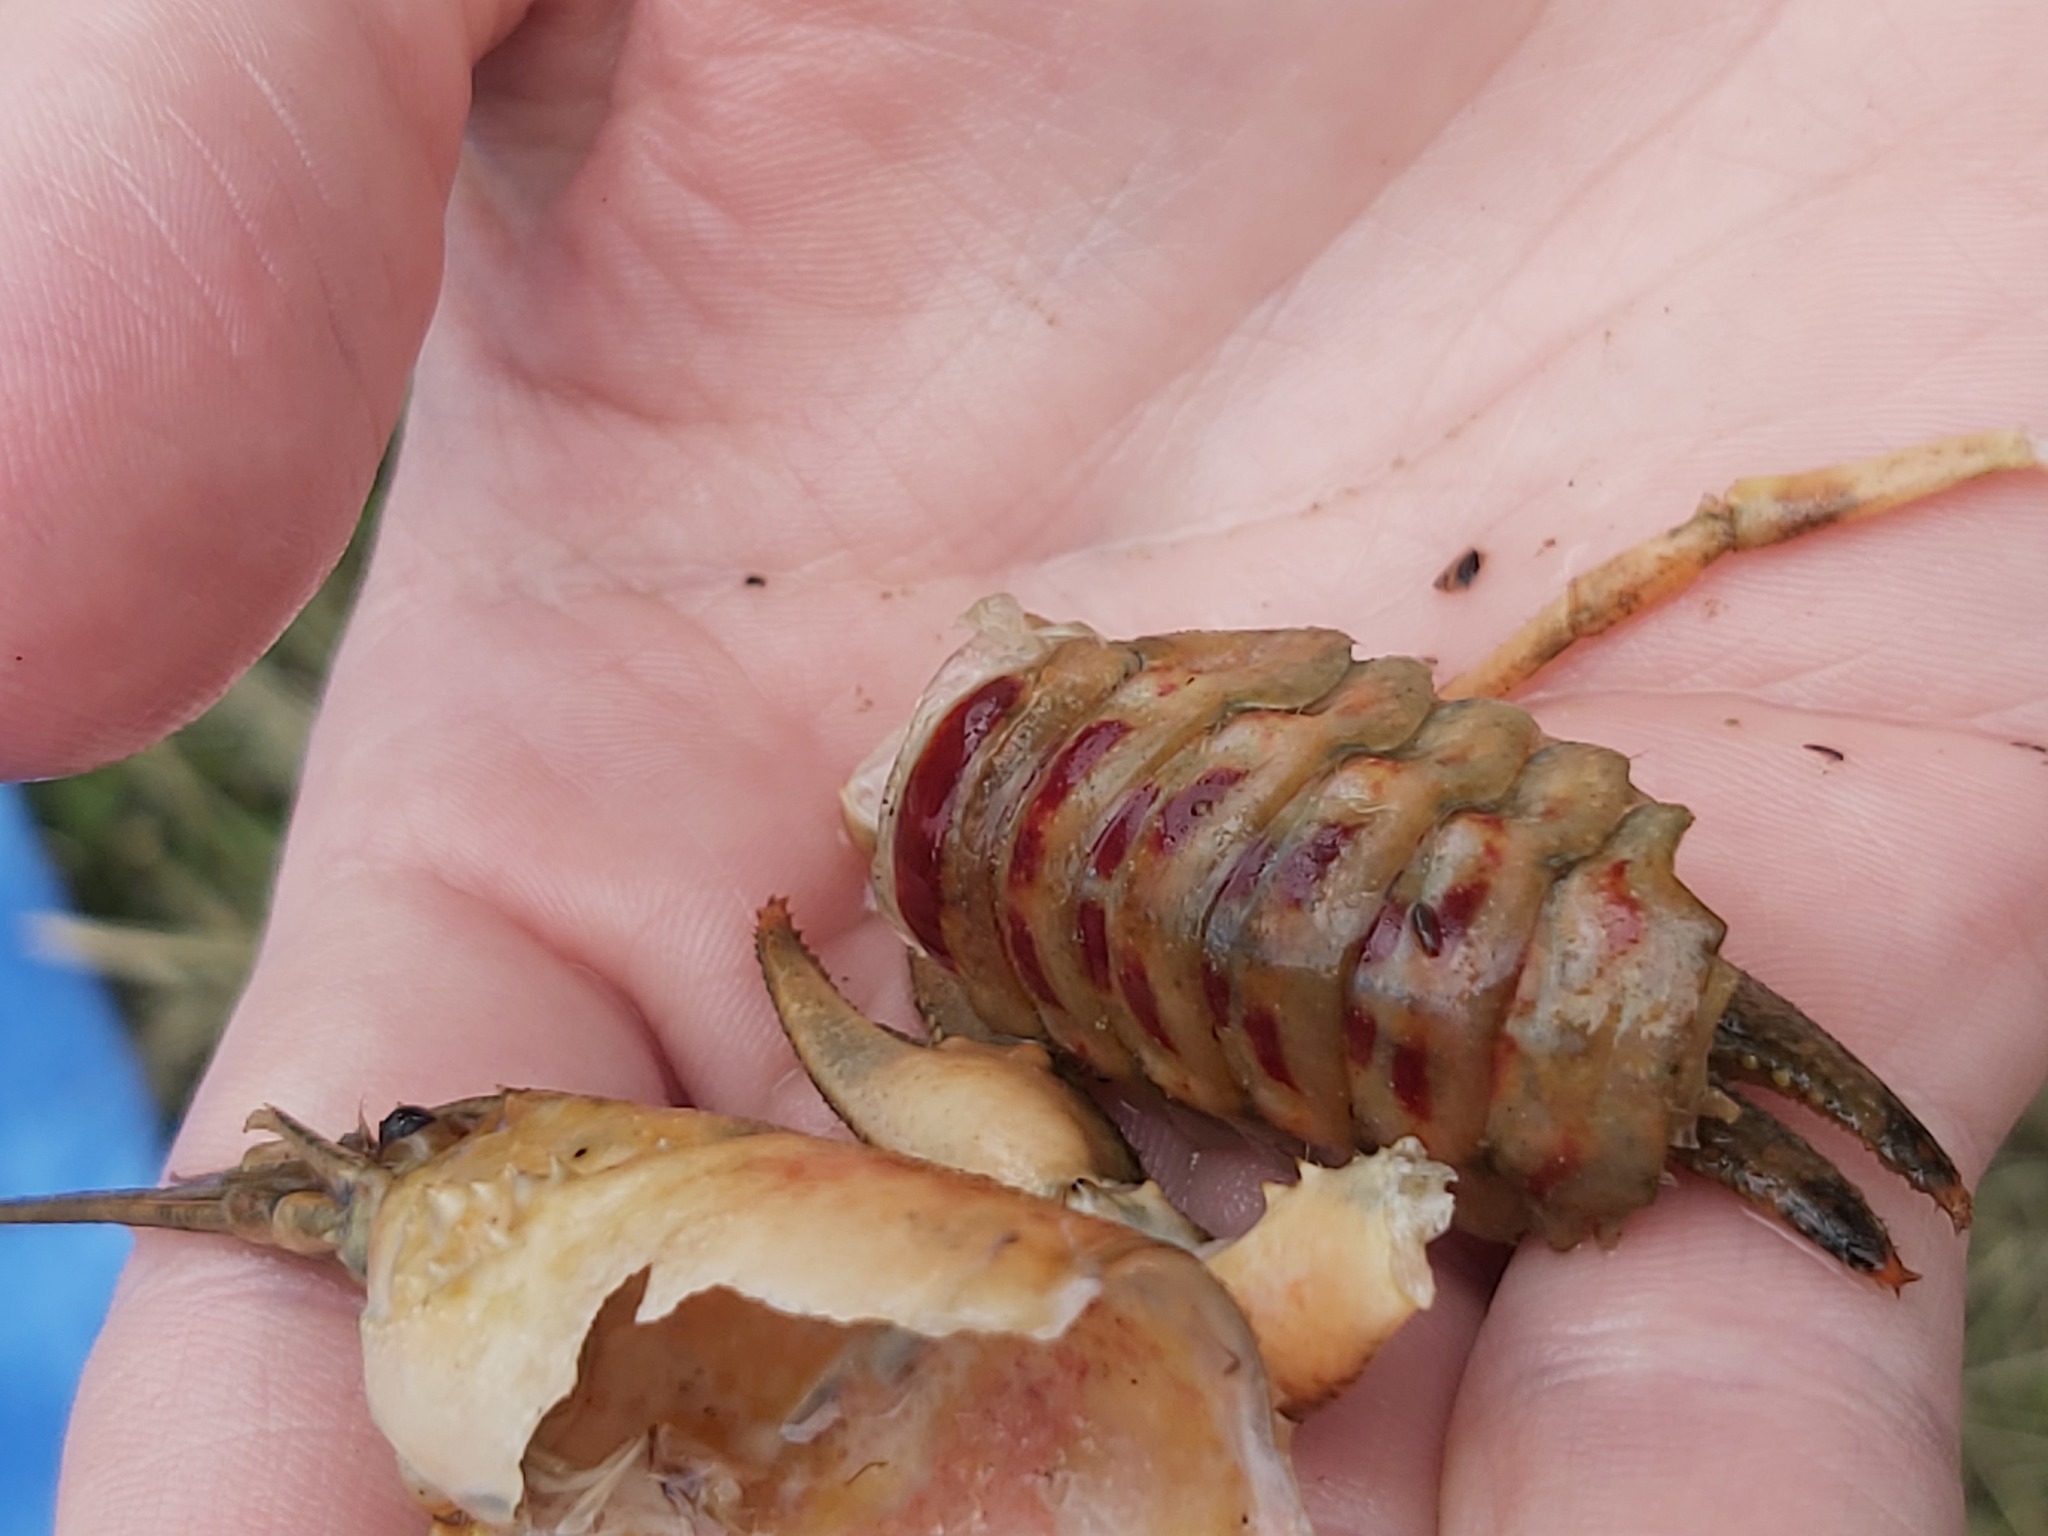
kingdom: Animalia
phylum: Arthropoda
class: Malacostraca
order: Decapoda
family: Cambaridae
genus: Faxonius
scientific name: Faxonius limosus
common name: American crayfish
